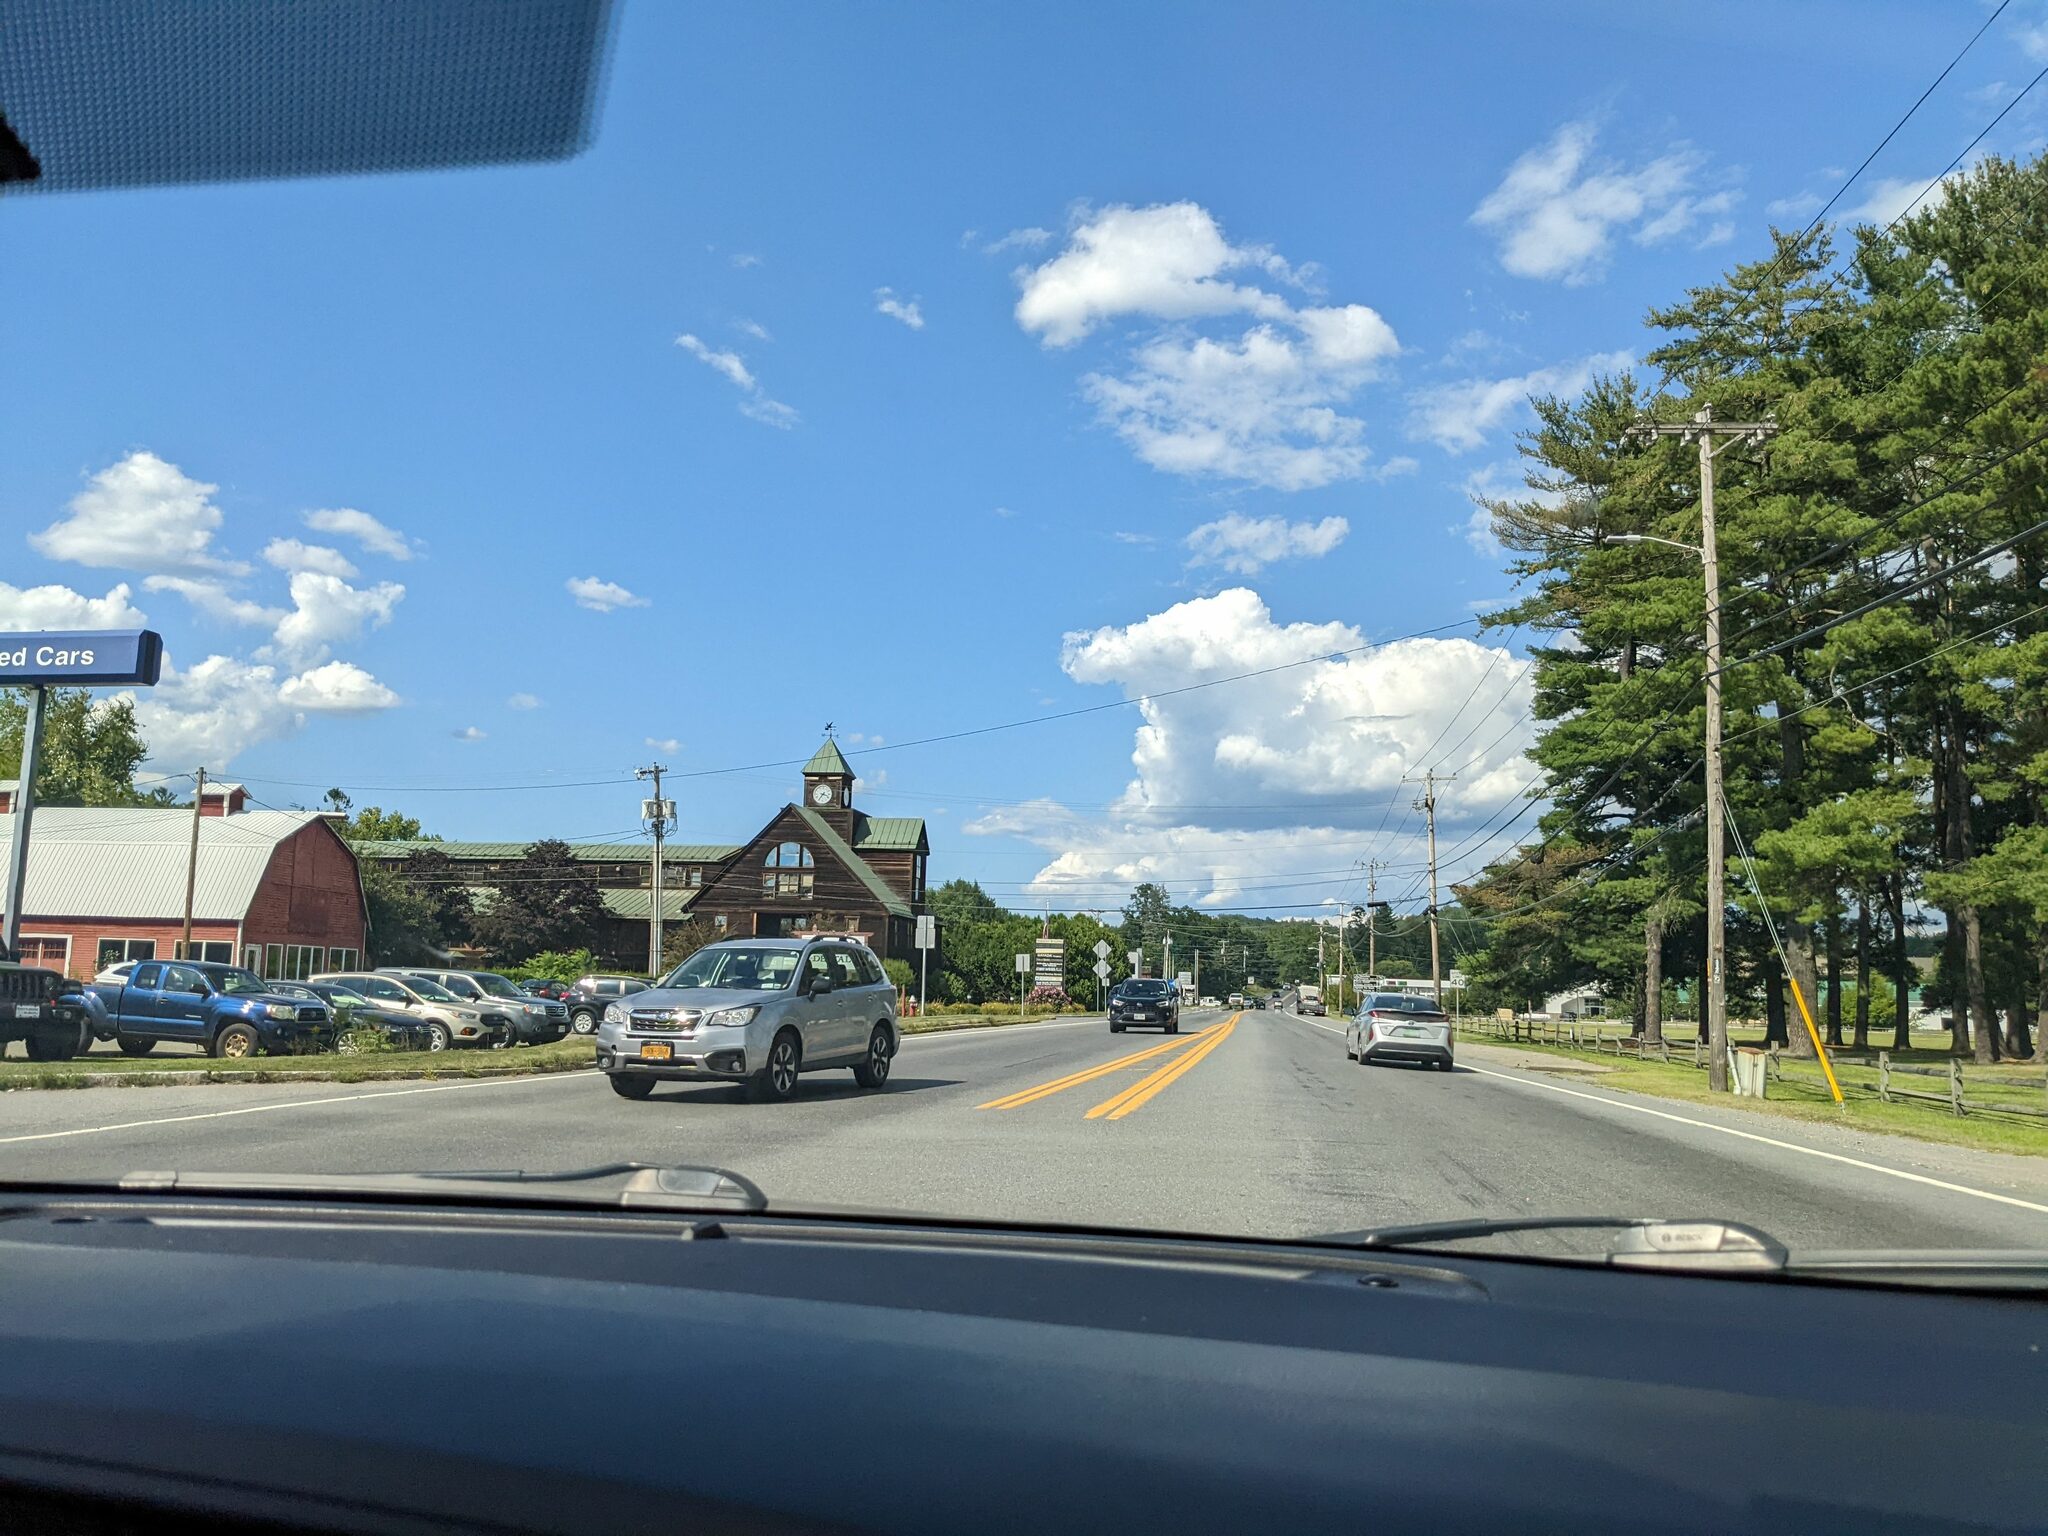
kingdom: Plantae
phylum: Tracheophyta
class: Pinopsida
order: Pinales
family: Pinaceae
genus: Pinus
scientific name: Pinus strobus
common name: Weymouth pine
